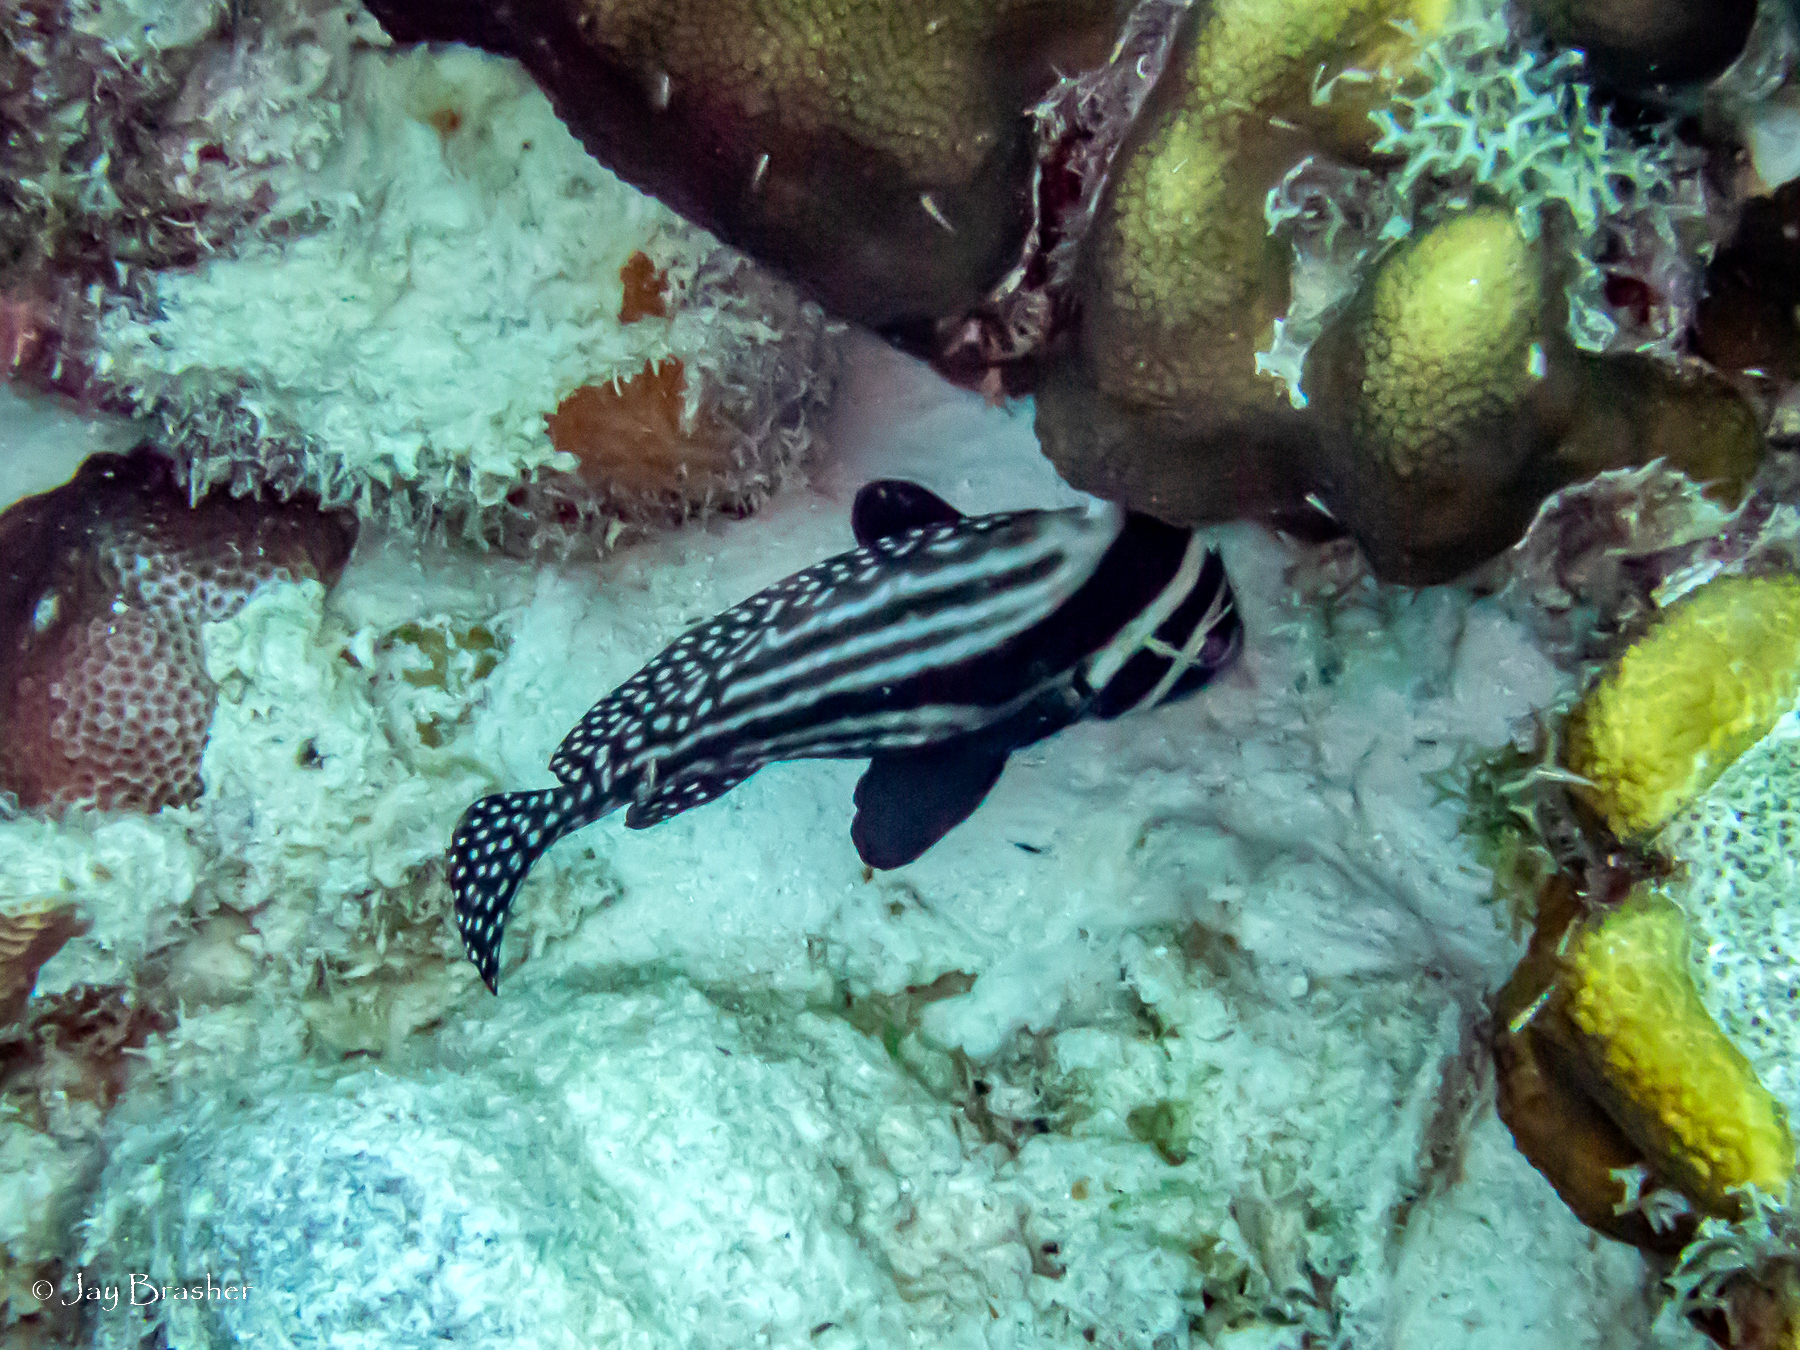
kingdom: Animalia
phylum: Chordata
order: Perciformes
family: Sciaenidae
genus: Equetus
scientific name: Equetus punctatus
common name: Spotted drum
